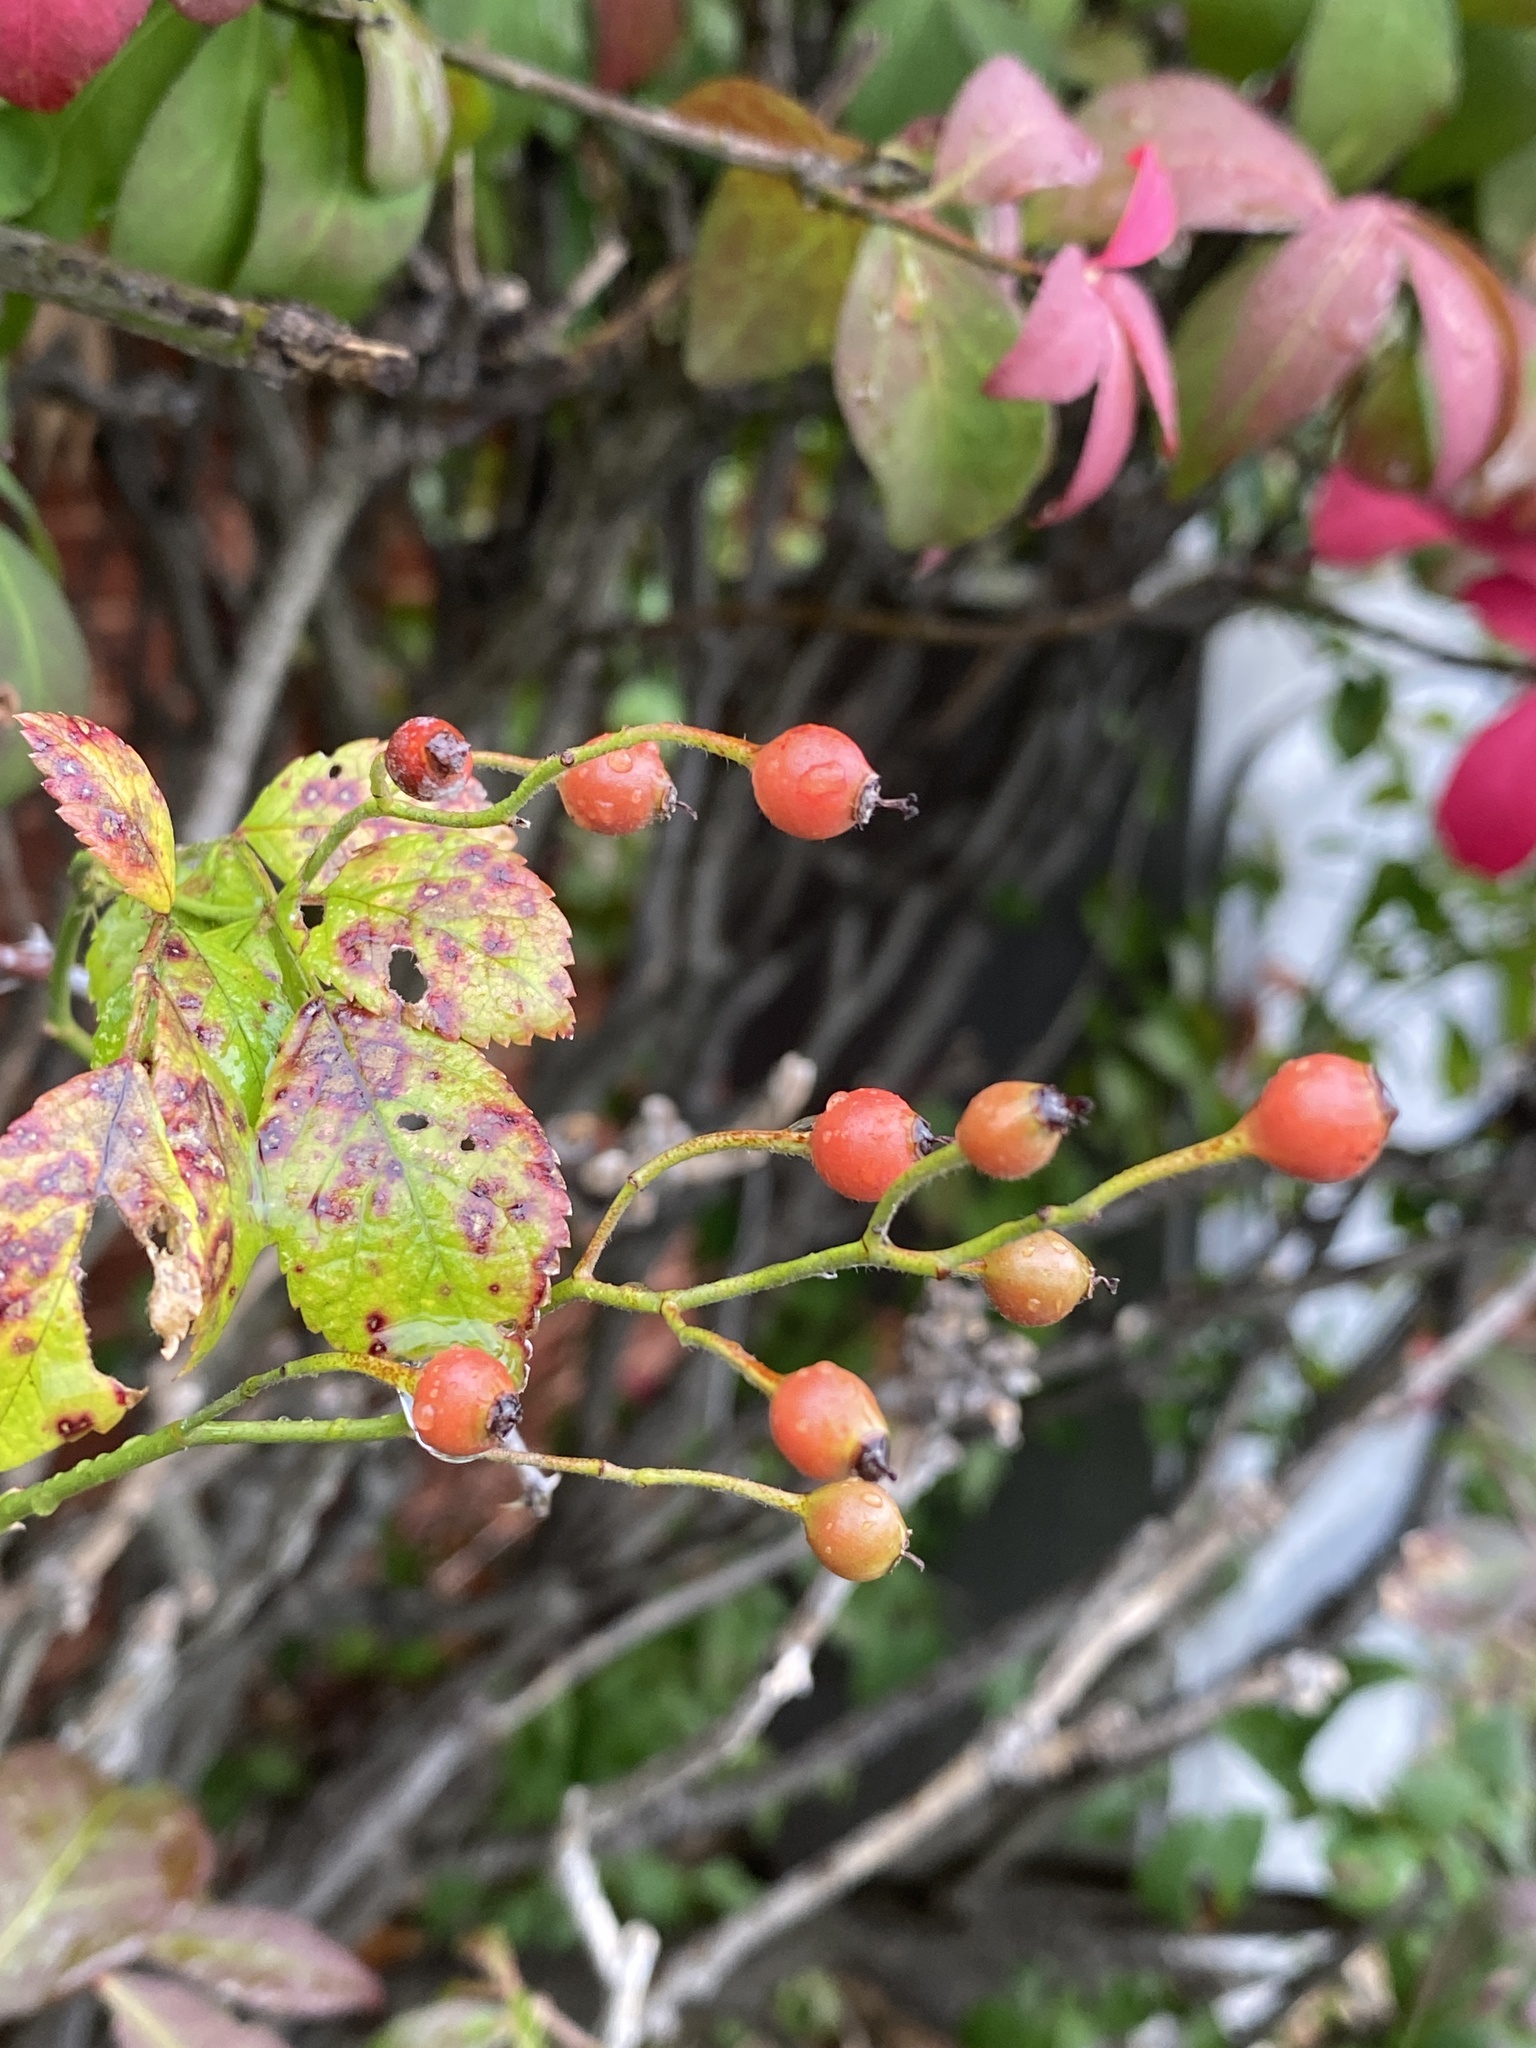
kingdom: Plantae
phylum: Tracheophyta
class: Magnoliopsida
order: Rosales
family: Rosaceae
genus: Rosa
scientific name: Rosa multiflora
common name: Multiflora rose
